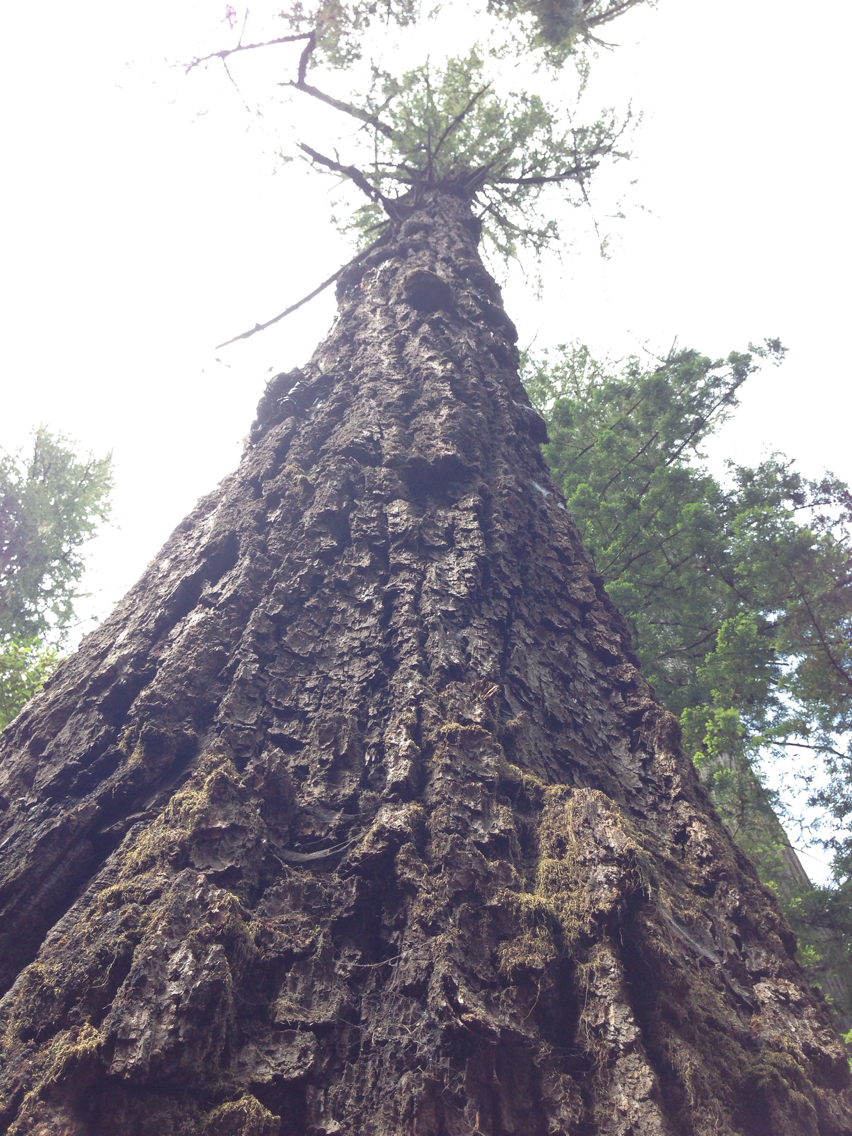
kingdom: Plantae
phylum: Tracheophyta
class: Pinopsida
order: Pinales
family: Pinaceae
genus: Pseudotsuga
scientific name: Pseudotsuga menziesii
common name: Douglas fir
